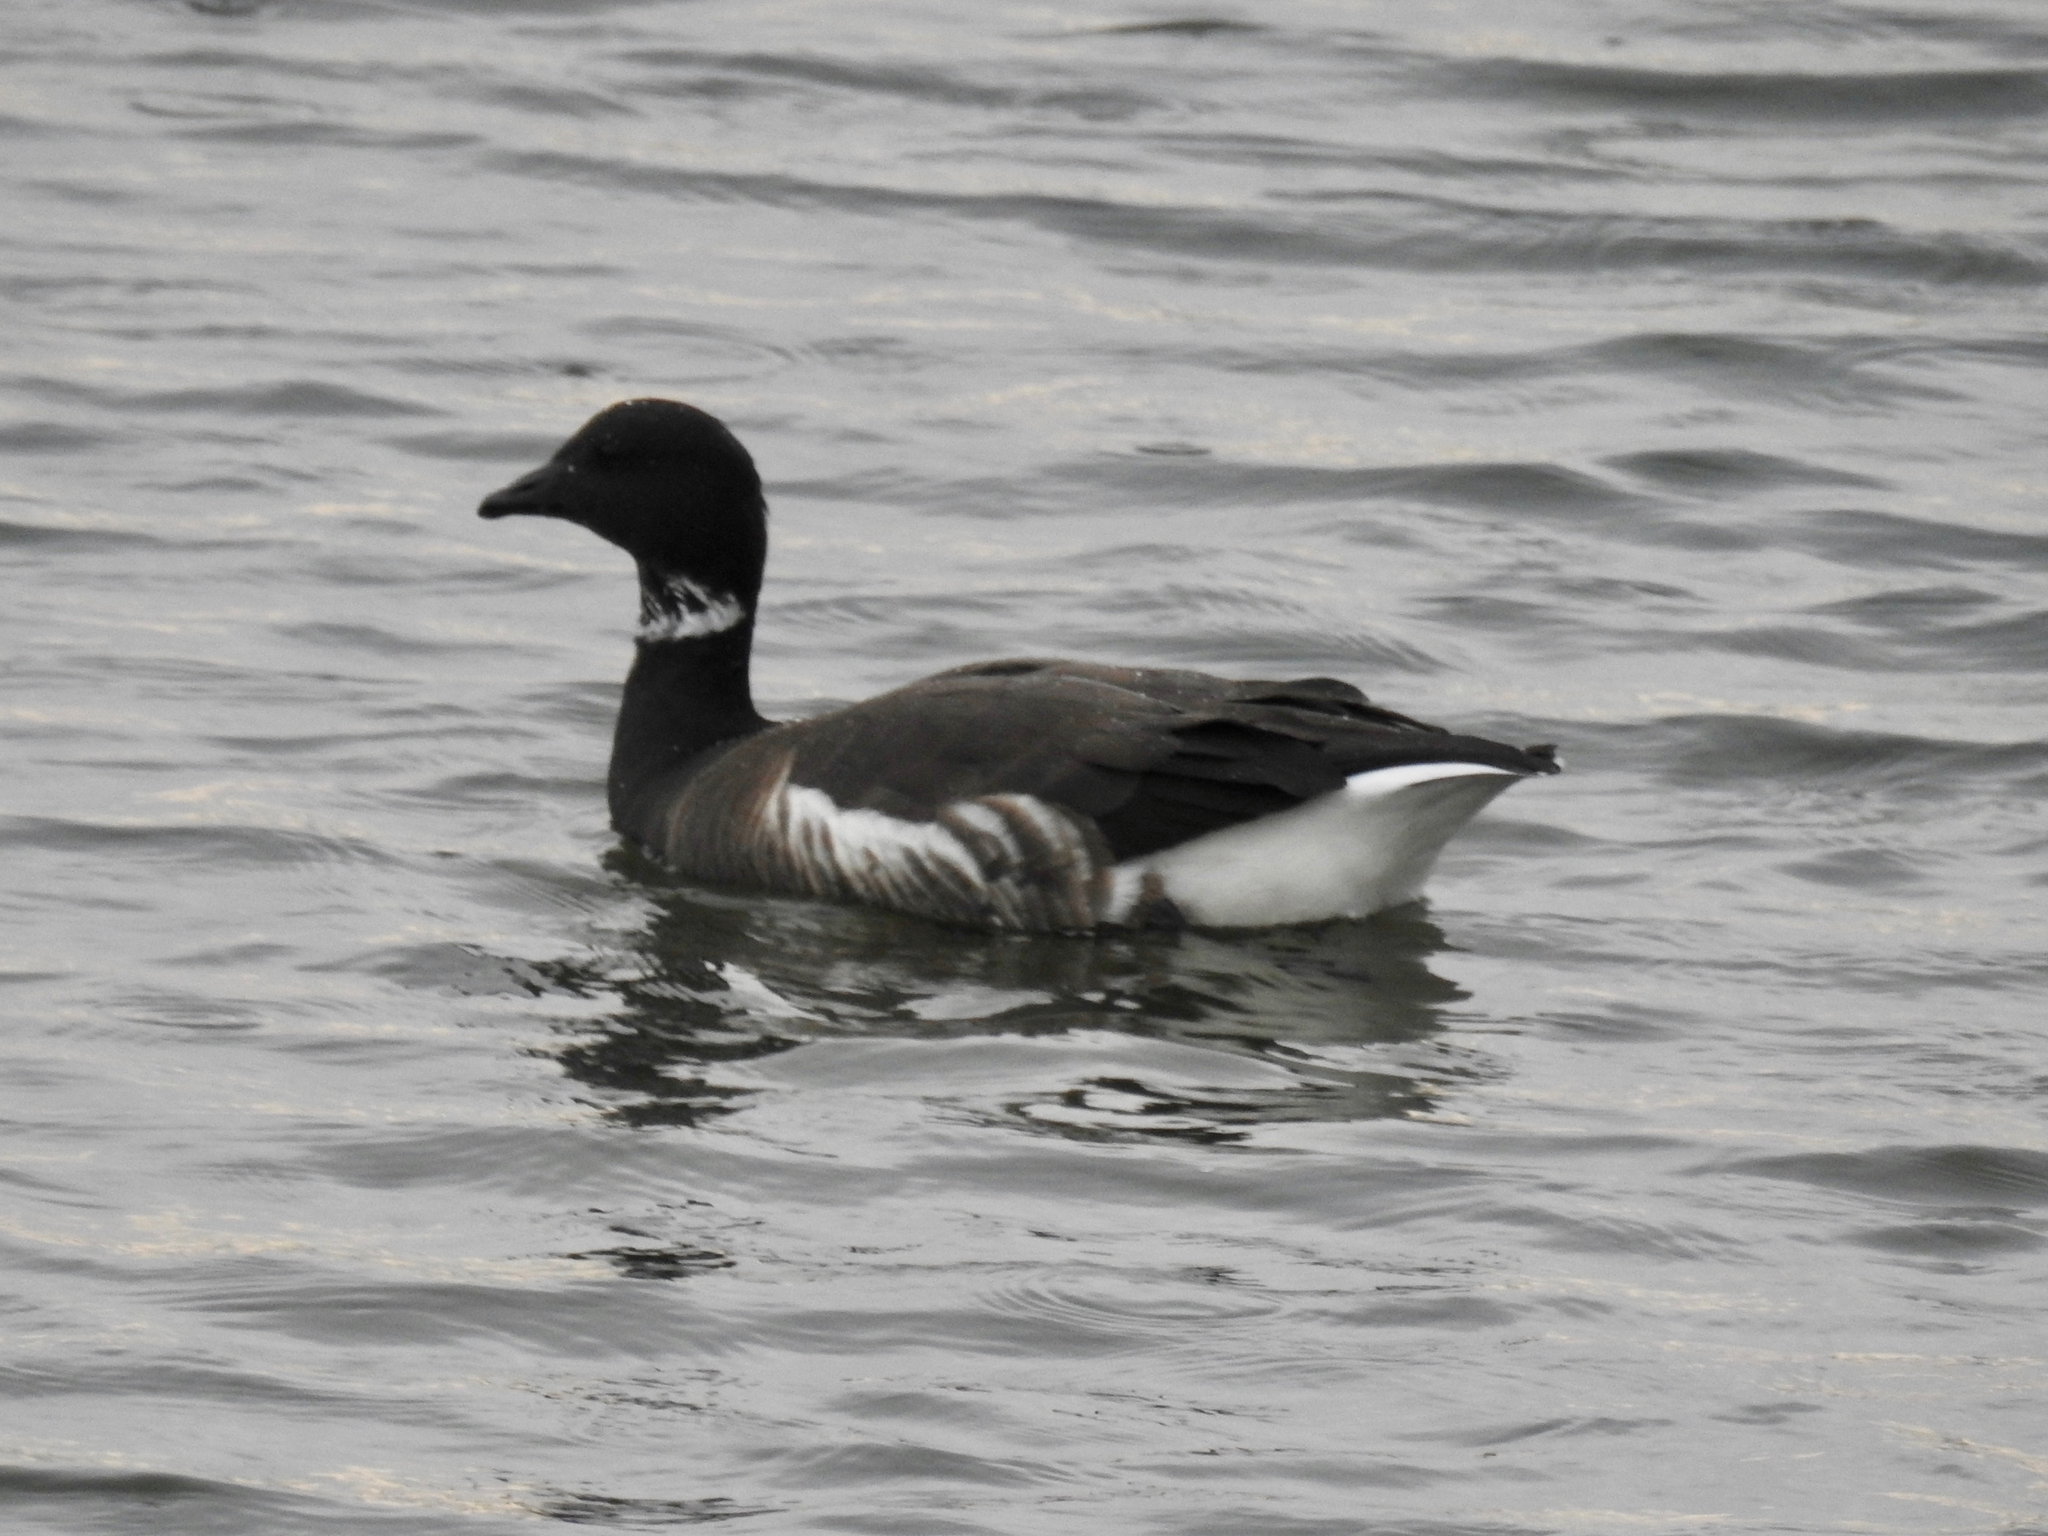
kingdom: Animalia
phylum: Chordata
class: Aves
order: Anseriformes
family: Anatidae
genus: Branta
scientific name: Branta bernicla
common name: Brant goose
